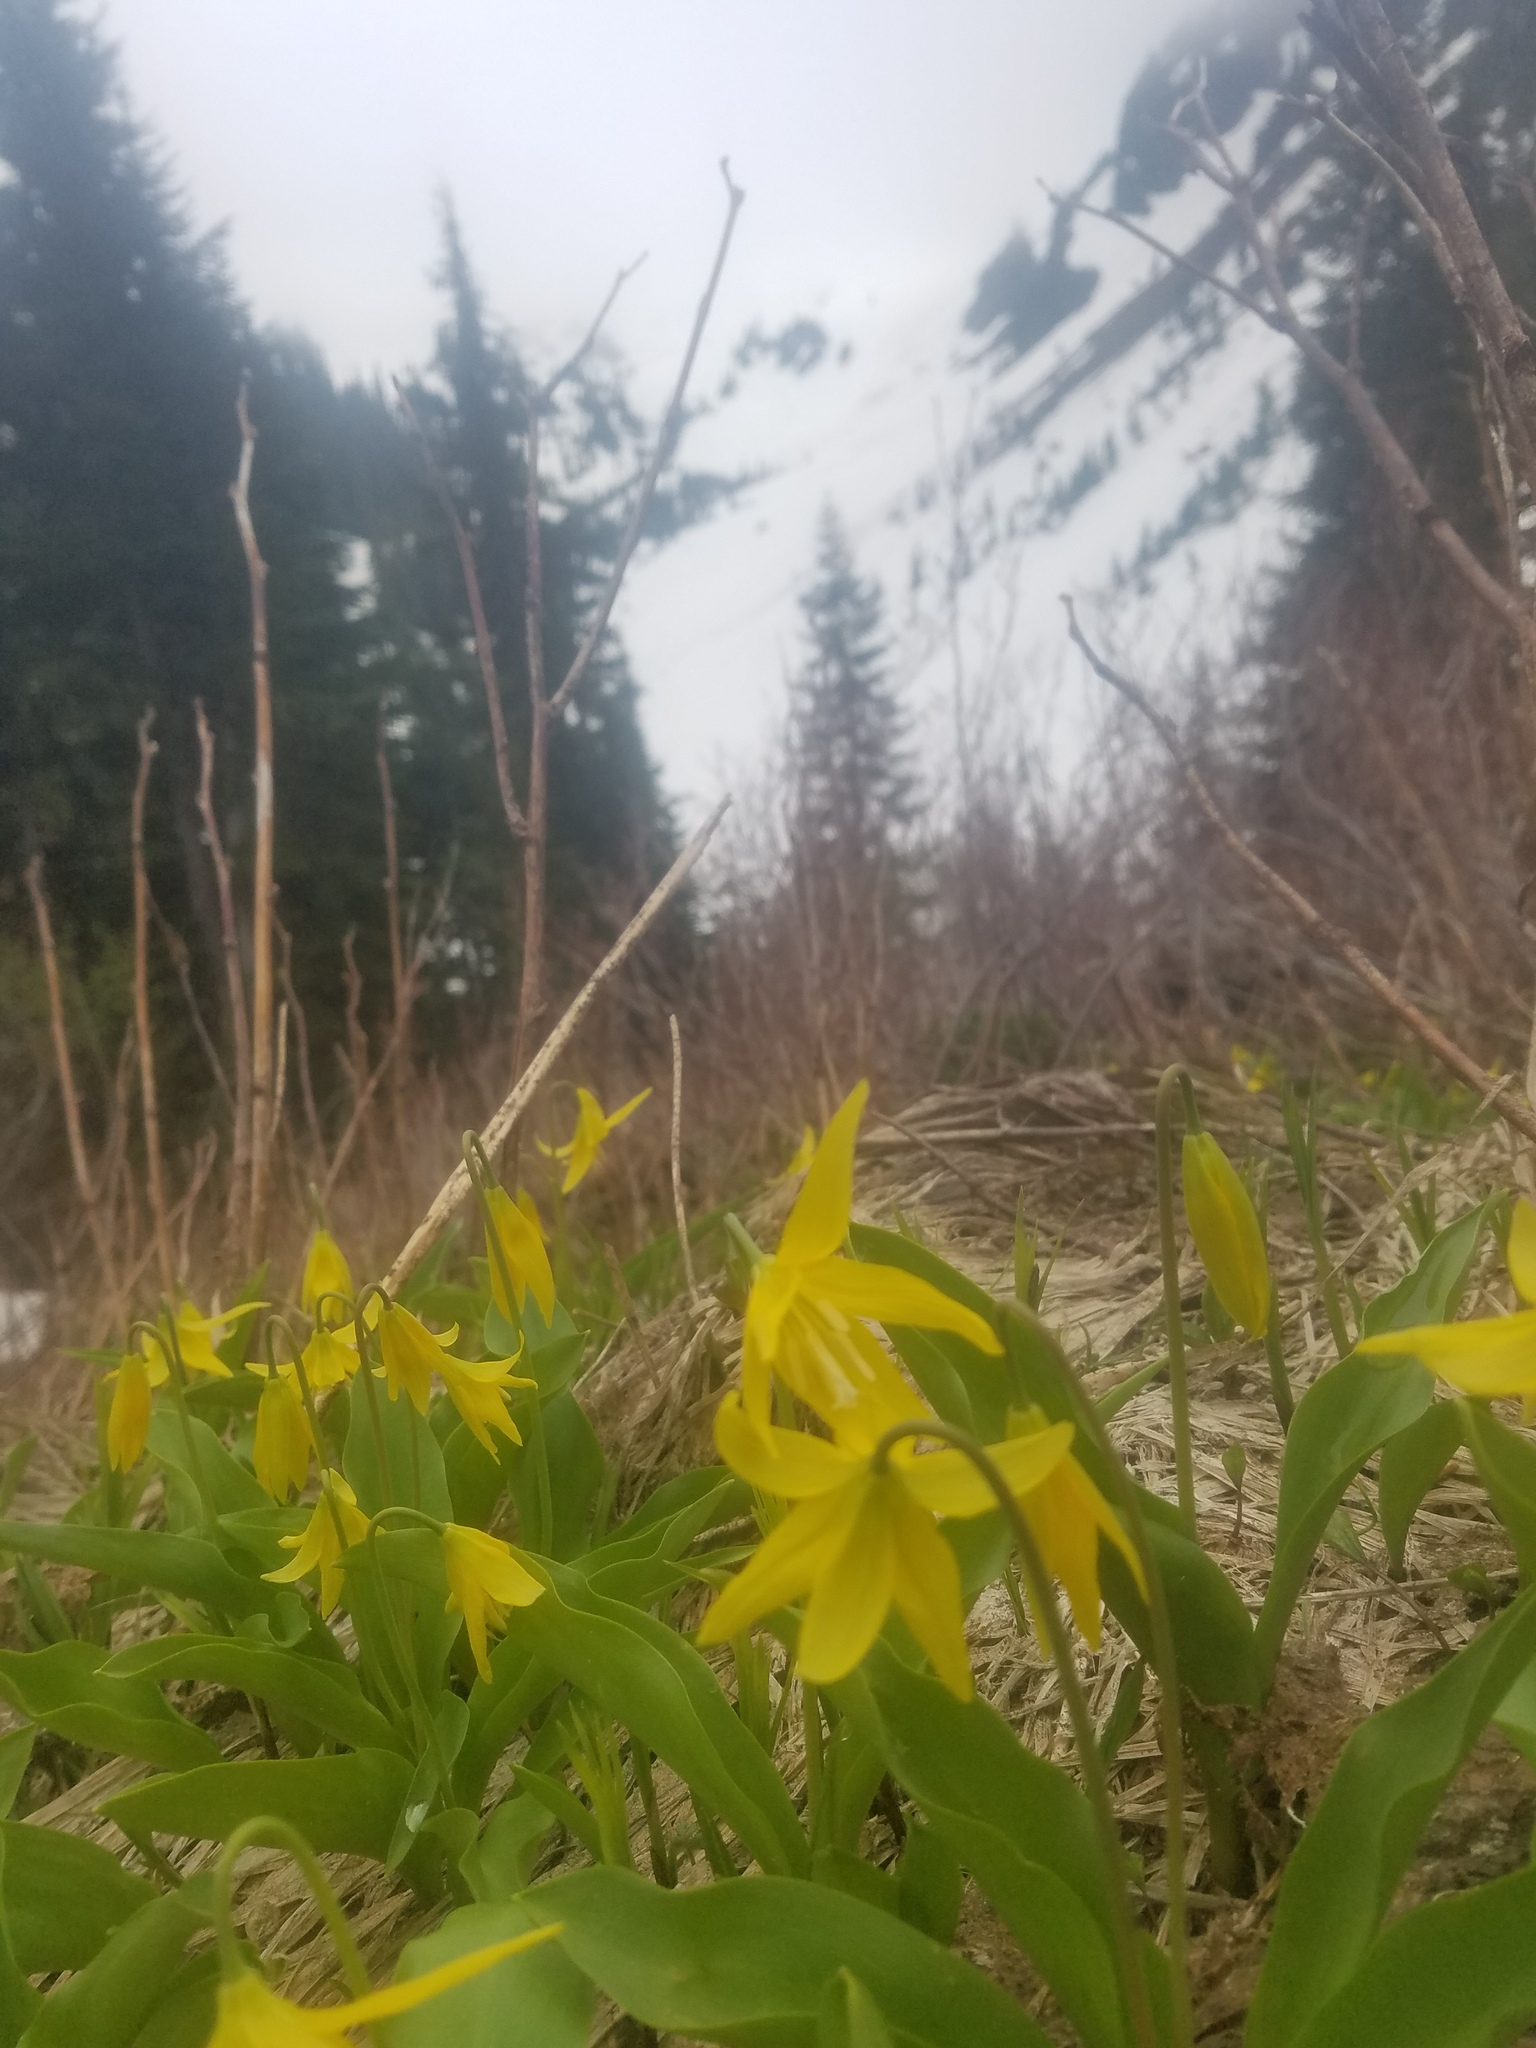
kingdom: Plantae
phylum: Tracheophyta
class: Liliopsida
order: Liliales
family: Liliaceae
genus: Erythronium
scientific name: Erythronium grandiflorum
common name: Avalanche-lily
